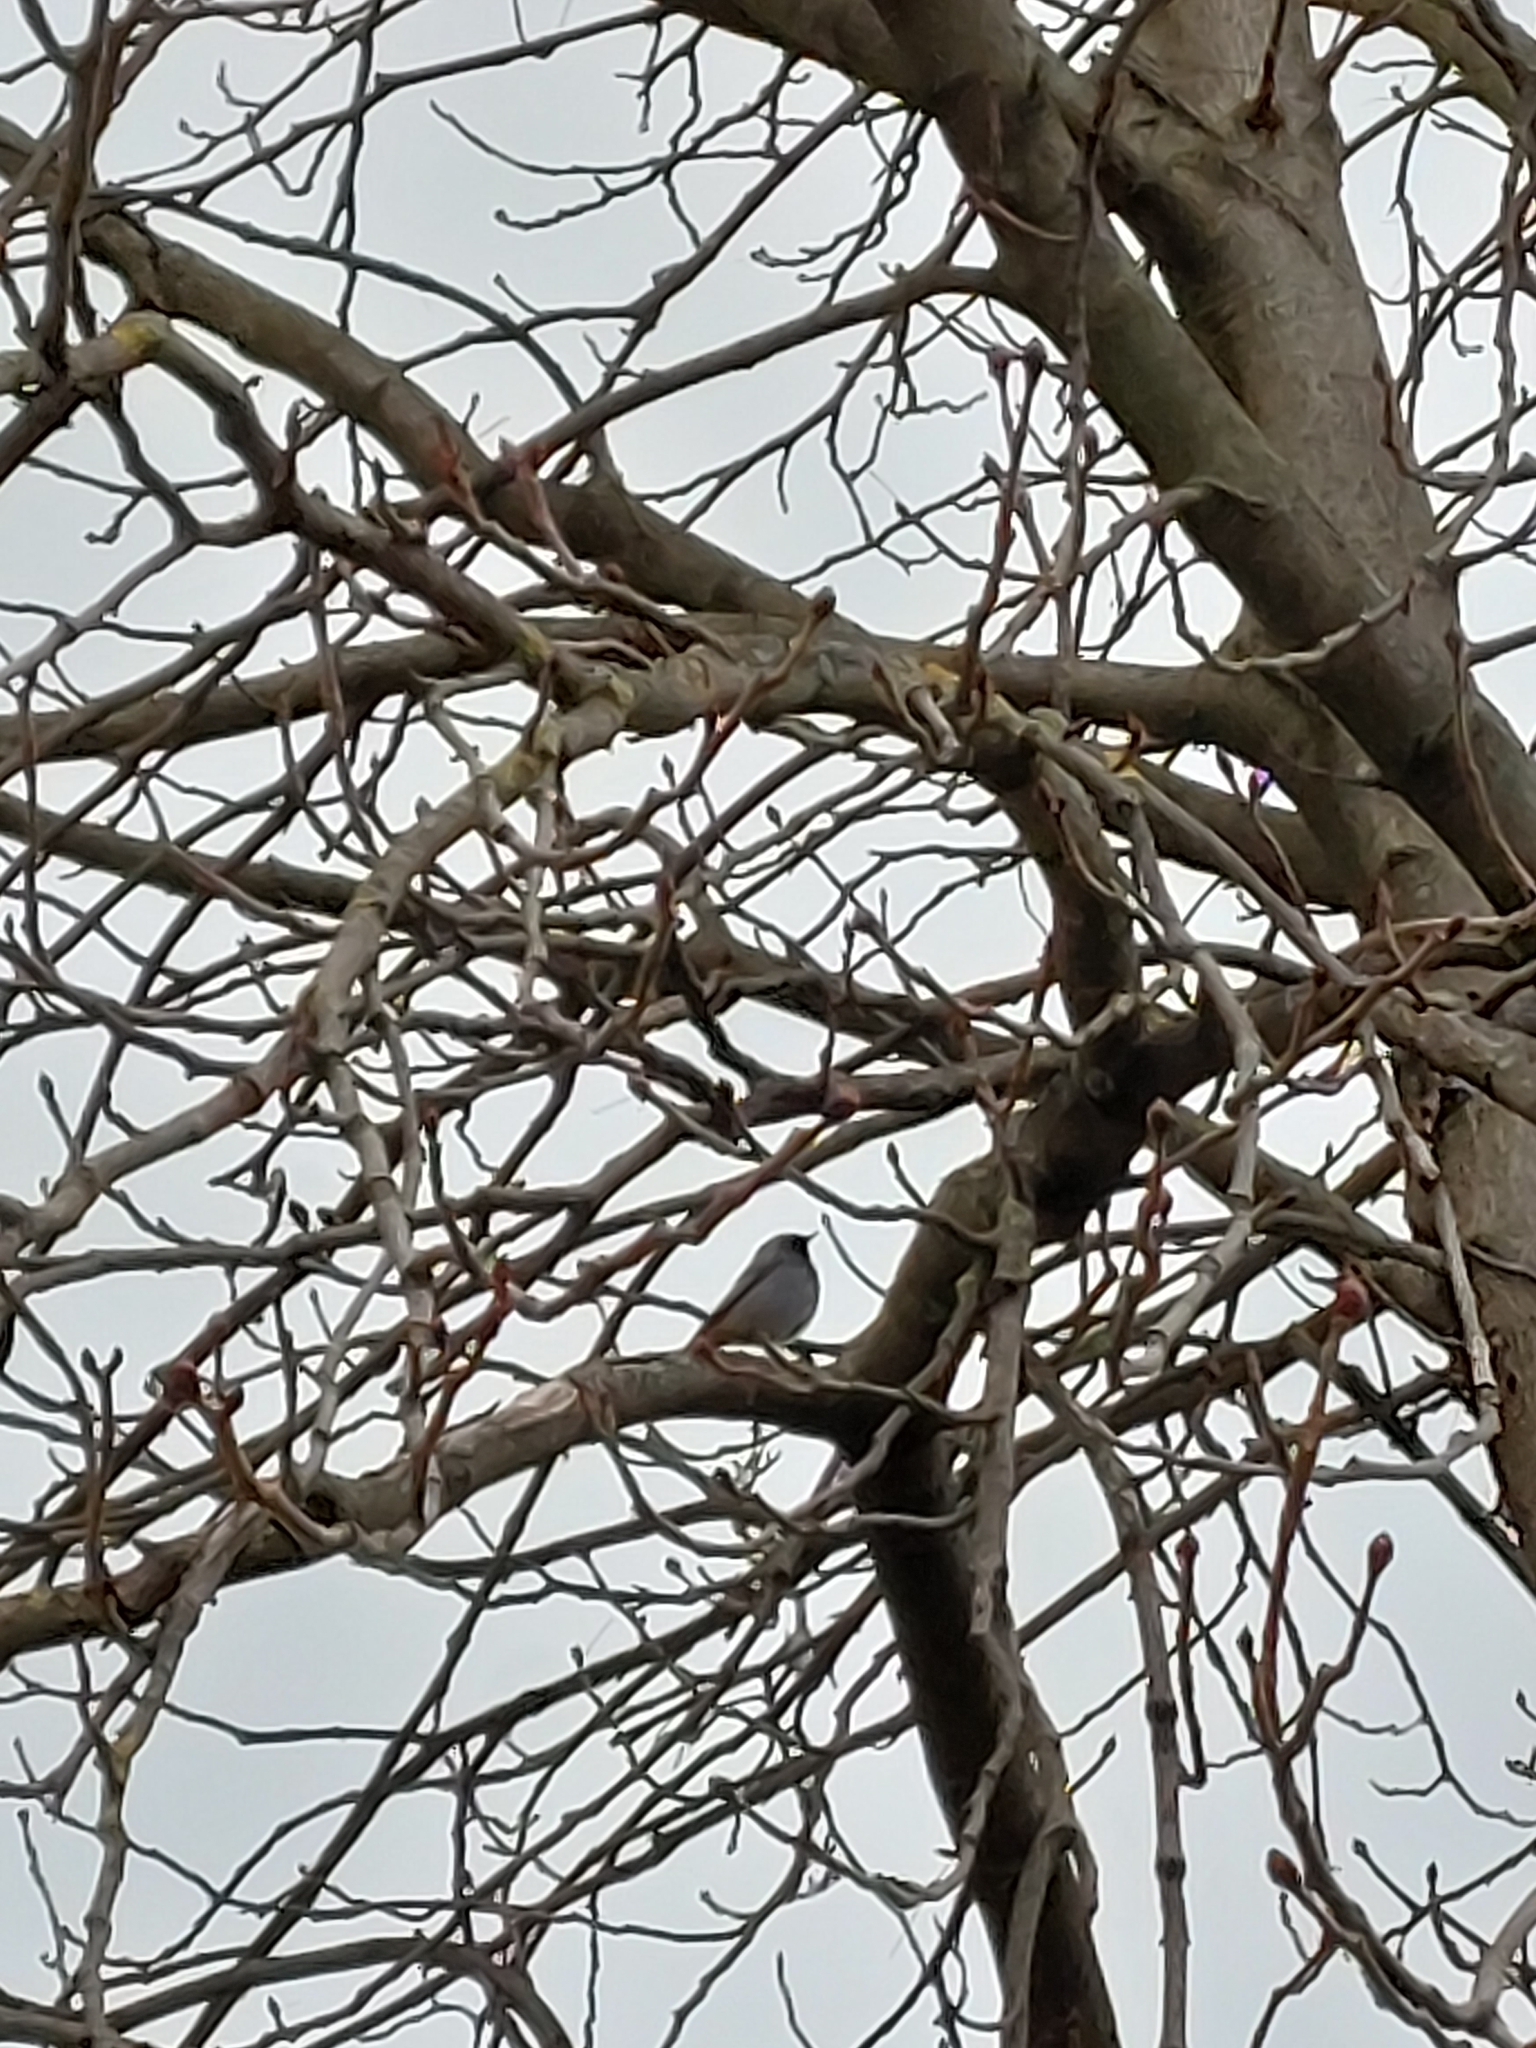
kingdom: Animalia
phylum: Chordata
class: Aves
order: Passeriformes
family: Muscicapidae
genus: Phoenicurus
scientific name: Phoenicurus ochruros
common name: Black redstart
